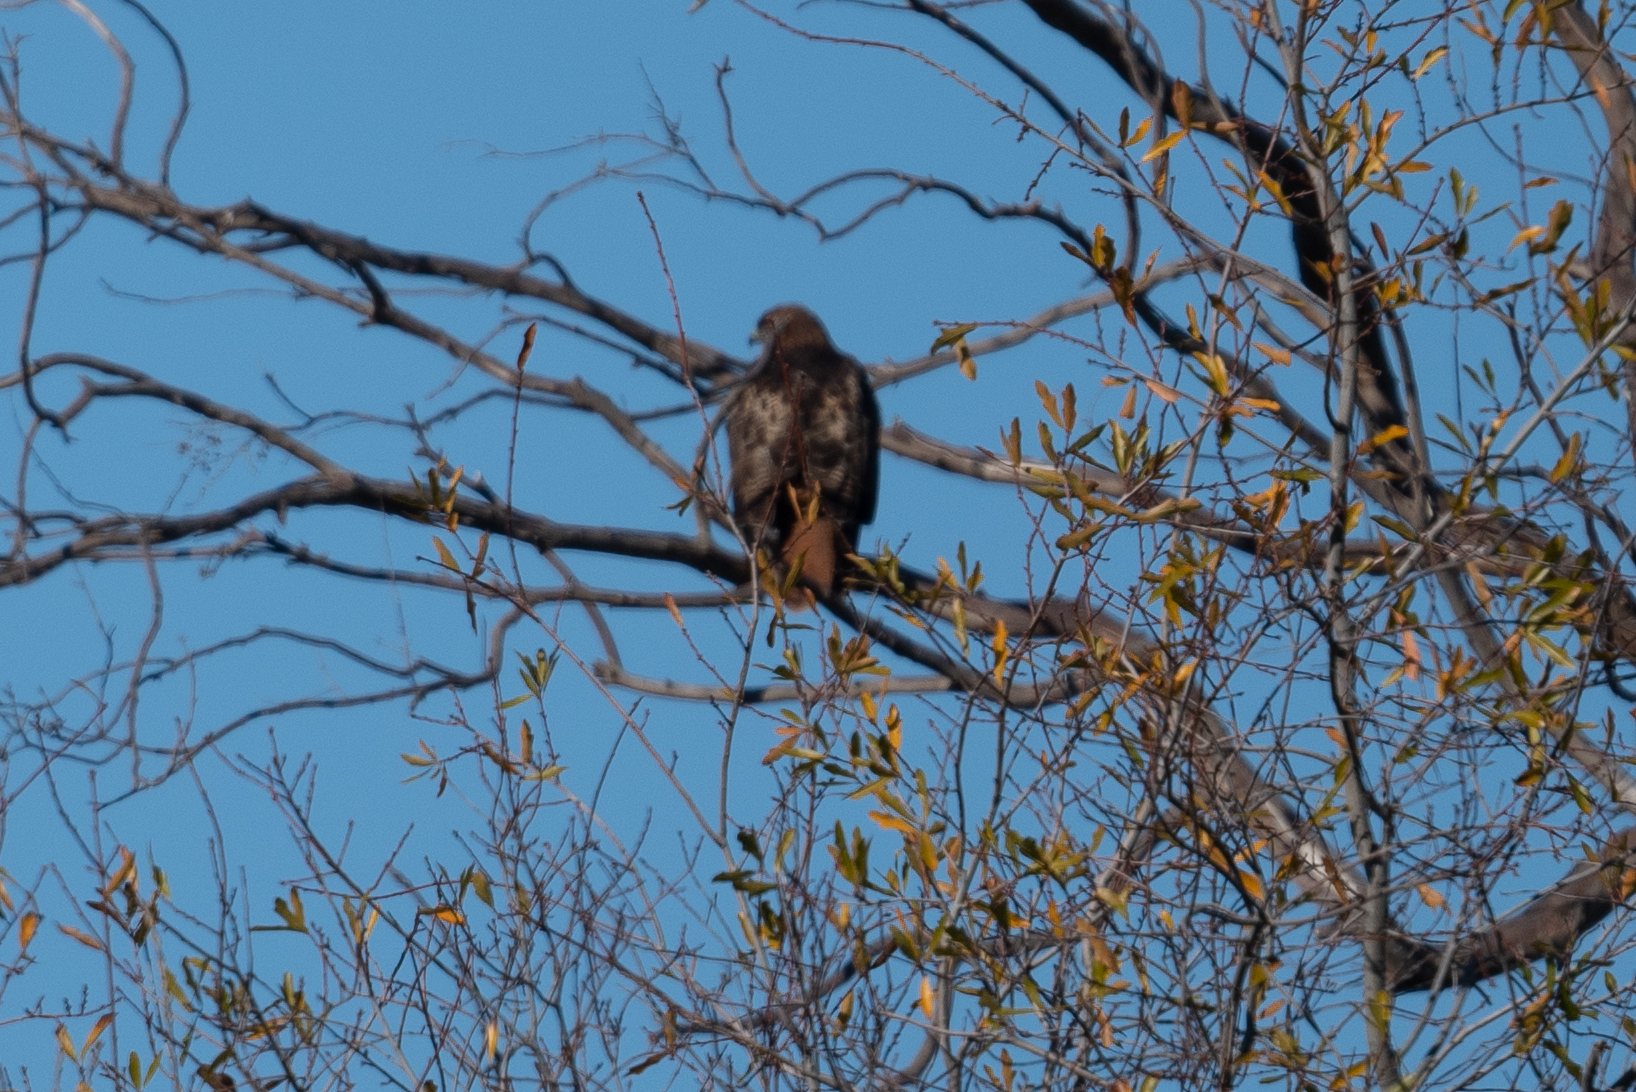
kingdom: Animalia
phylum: Chordata
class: Aves
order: Accipitriformes
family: Accipitridae
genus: Buteo
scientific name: Buteo jamaicensis
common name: Red-tailed hawk
